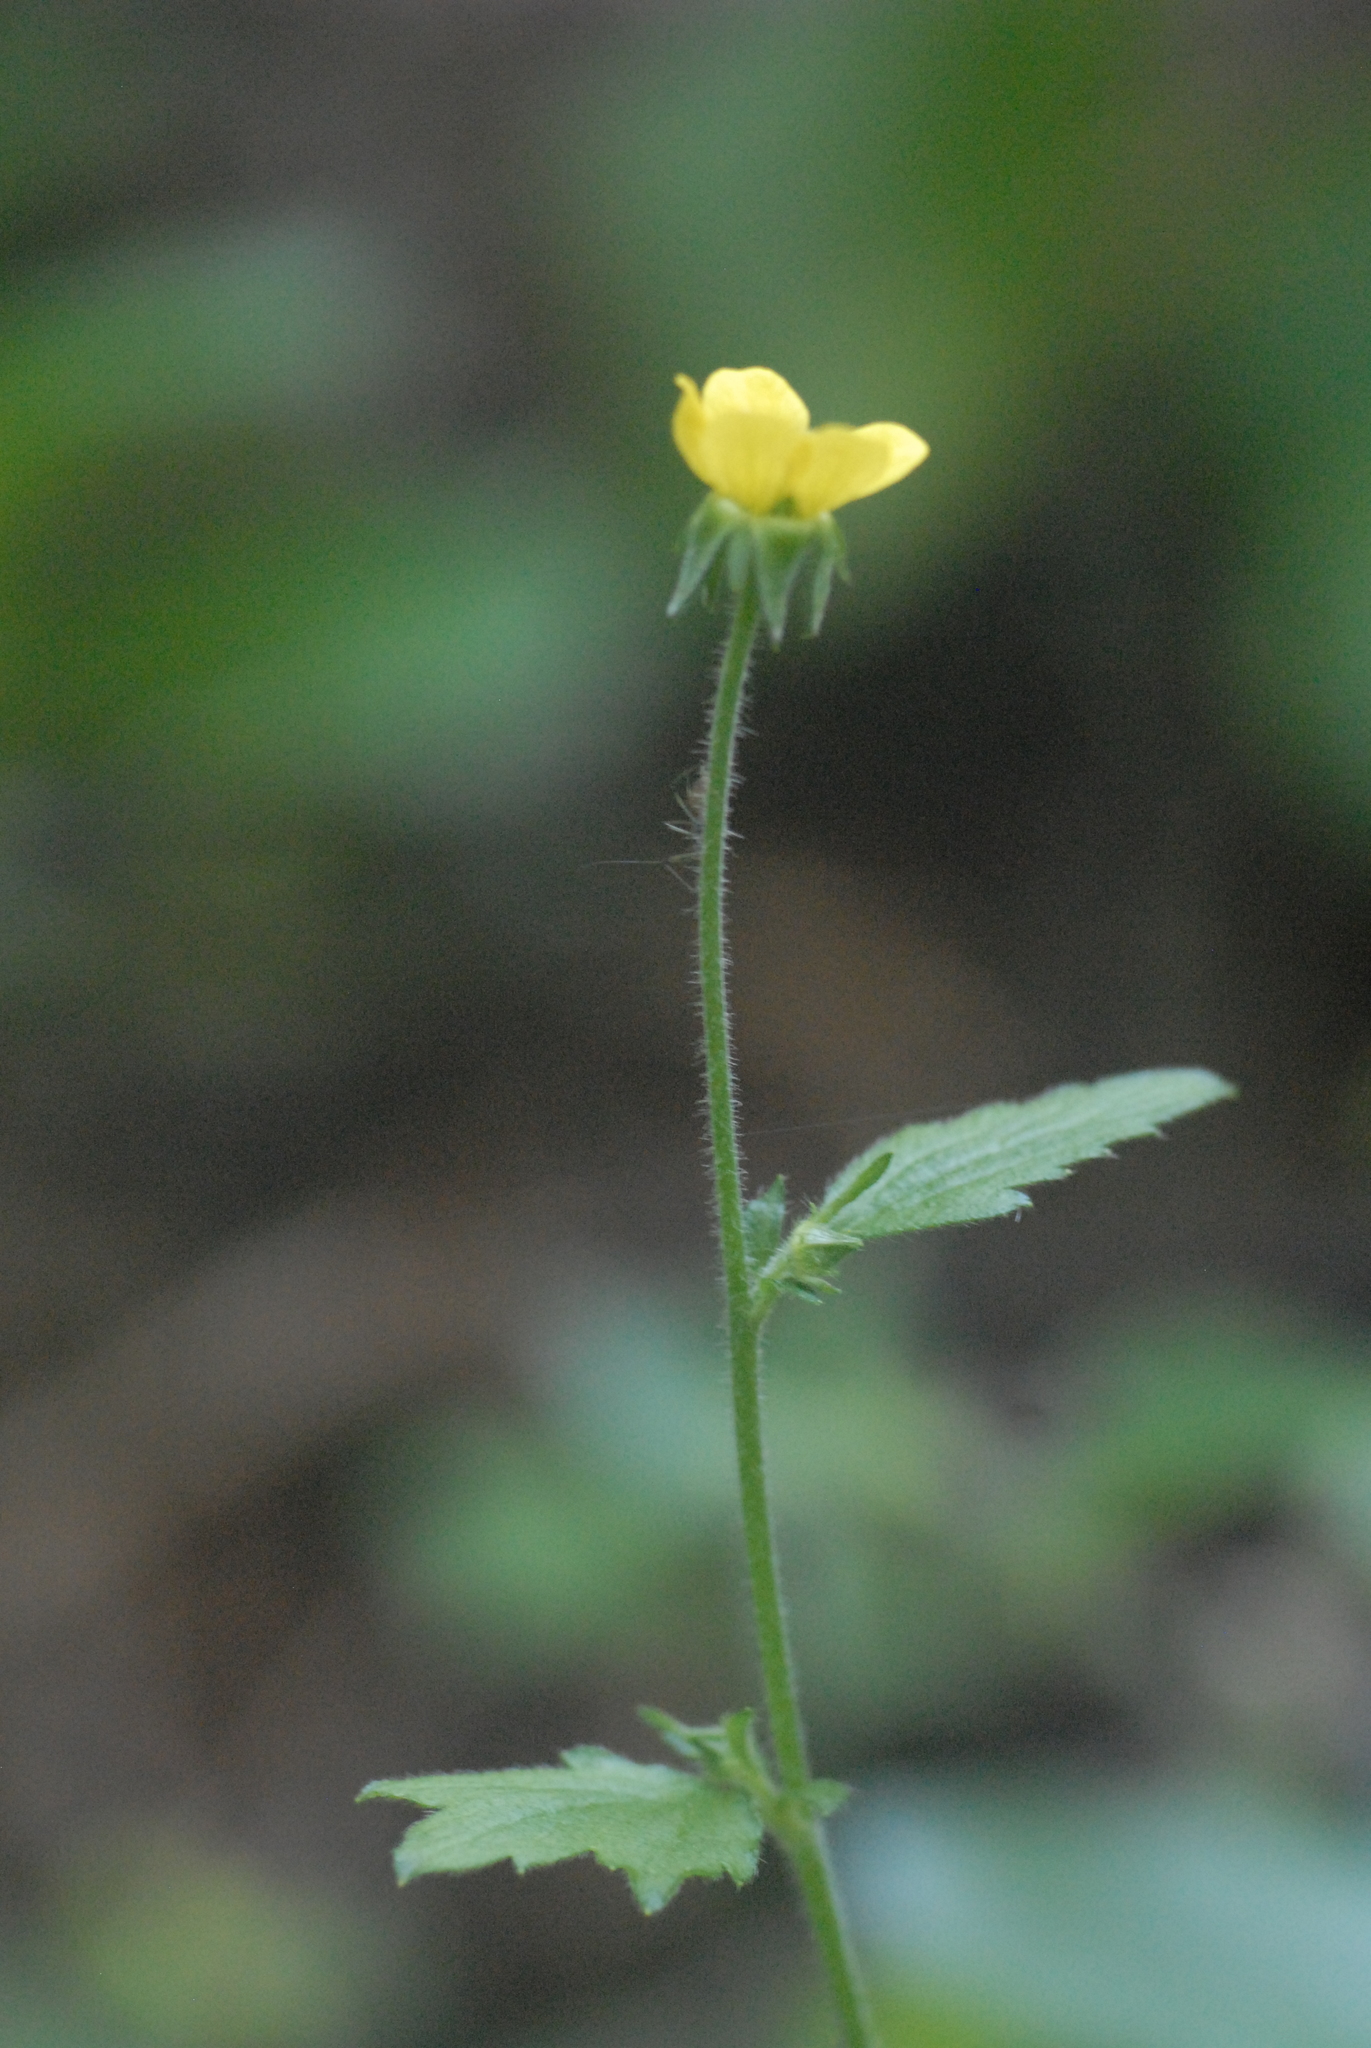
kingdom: Plantae
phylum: Tracheophyta
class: Magnoliopsida
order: Rosales
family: Rosaceae
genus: Geum
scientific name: Geum urbanum
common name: Wood avens
